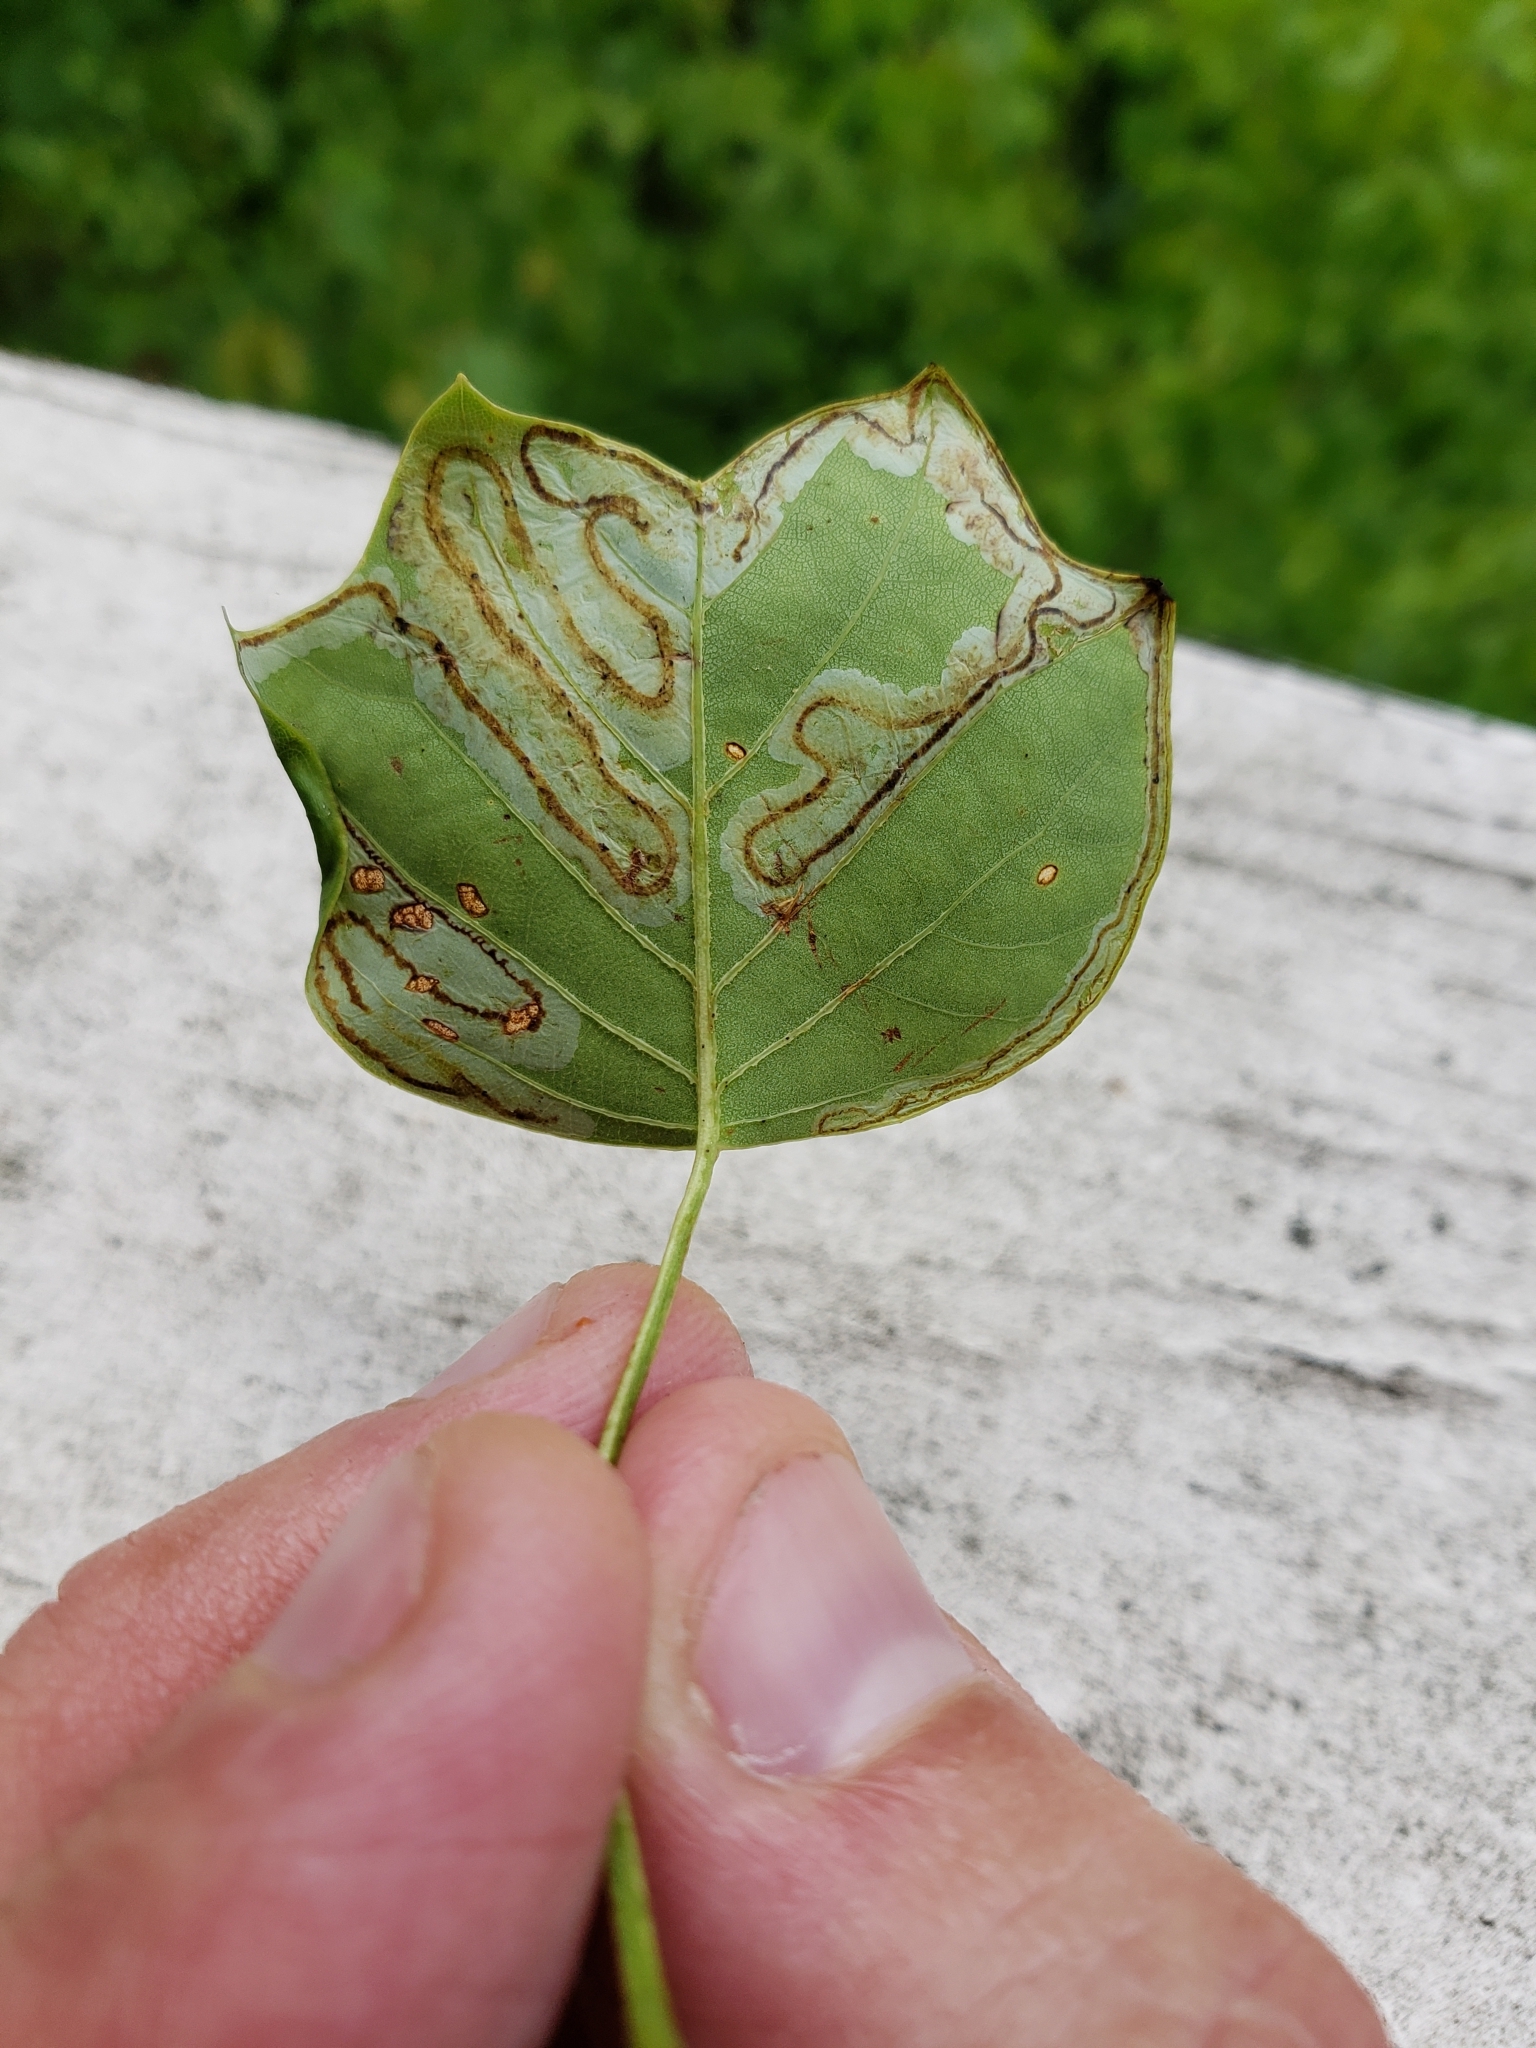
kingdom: Animalia
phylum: Arthropoda
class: Insecta
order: Lepidoptera
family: Gracillariidae
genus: Phyllocnistis
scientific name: Phyllocnistis liriodendronella
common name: Tulip tree leaf miner
